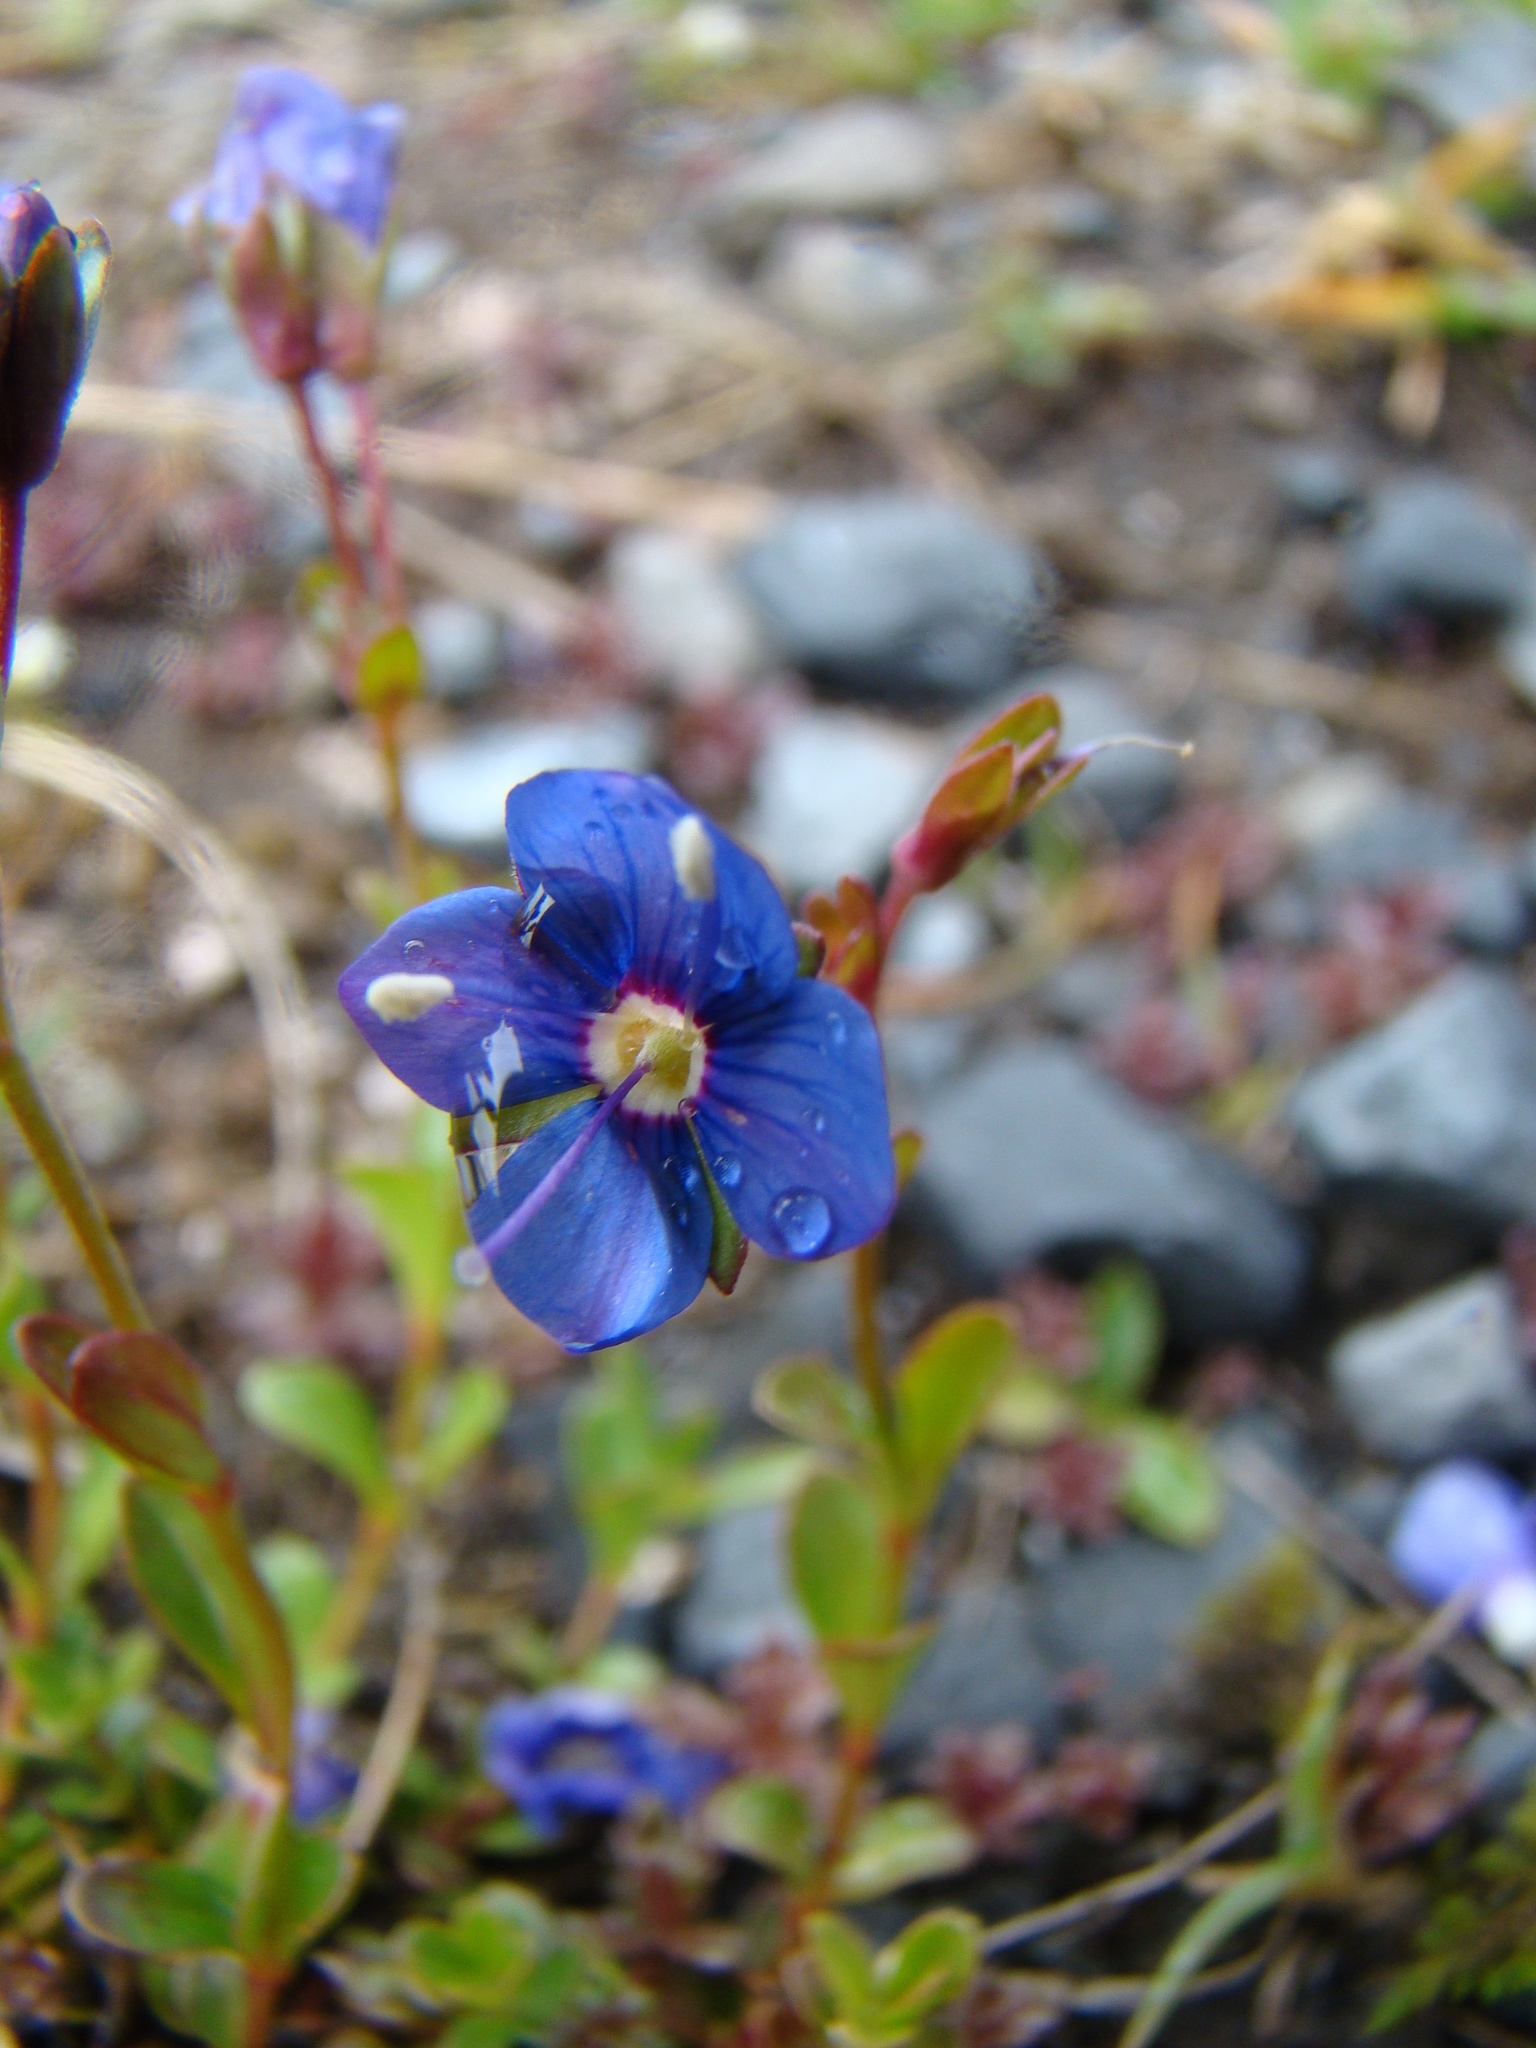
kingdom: Plantae
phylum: Tracheophyta
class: Magnoliopsida
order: Lamiales
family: Plantaginaceae
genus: Veronica
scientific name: Veronica fruticans
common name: Rock speedwell
